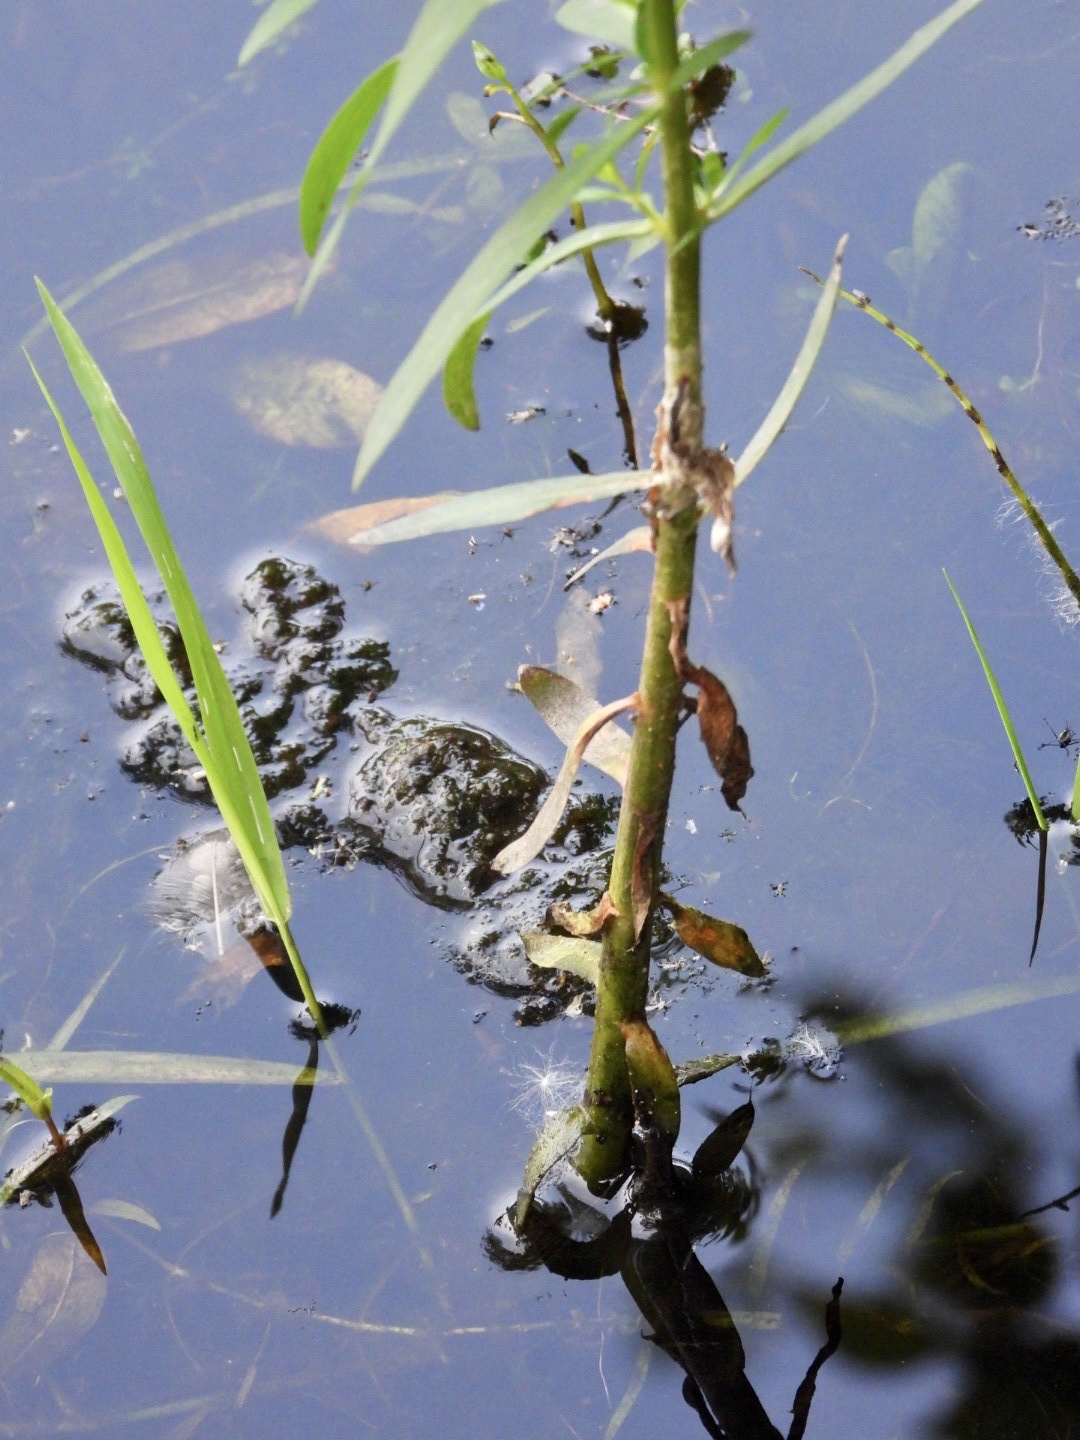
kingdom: Plantae
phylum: Tracheophyta
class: Magnoliopsida
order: Ericales
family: Primulaceae
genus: Lysimachia
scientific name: Lysimachia terrestris
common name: Lake loosestrife
